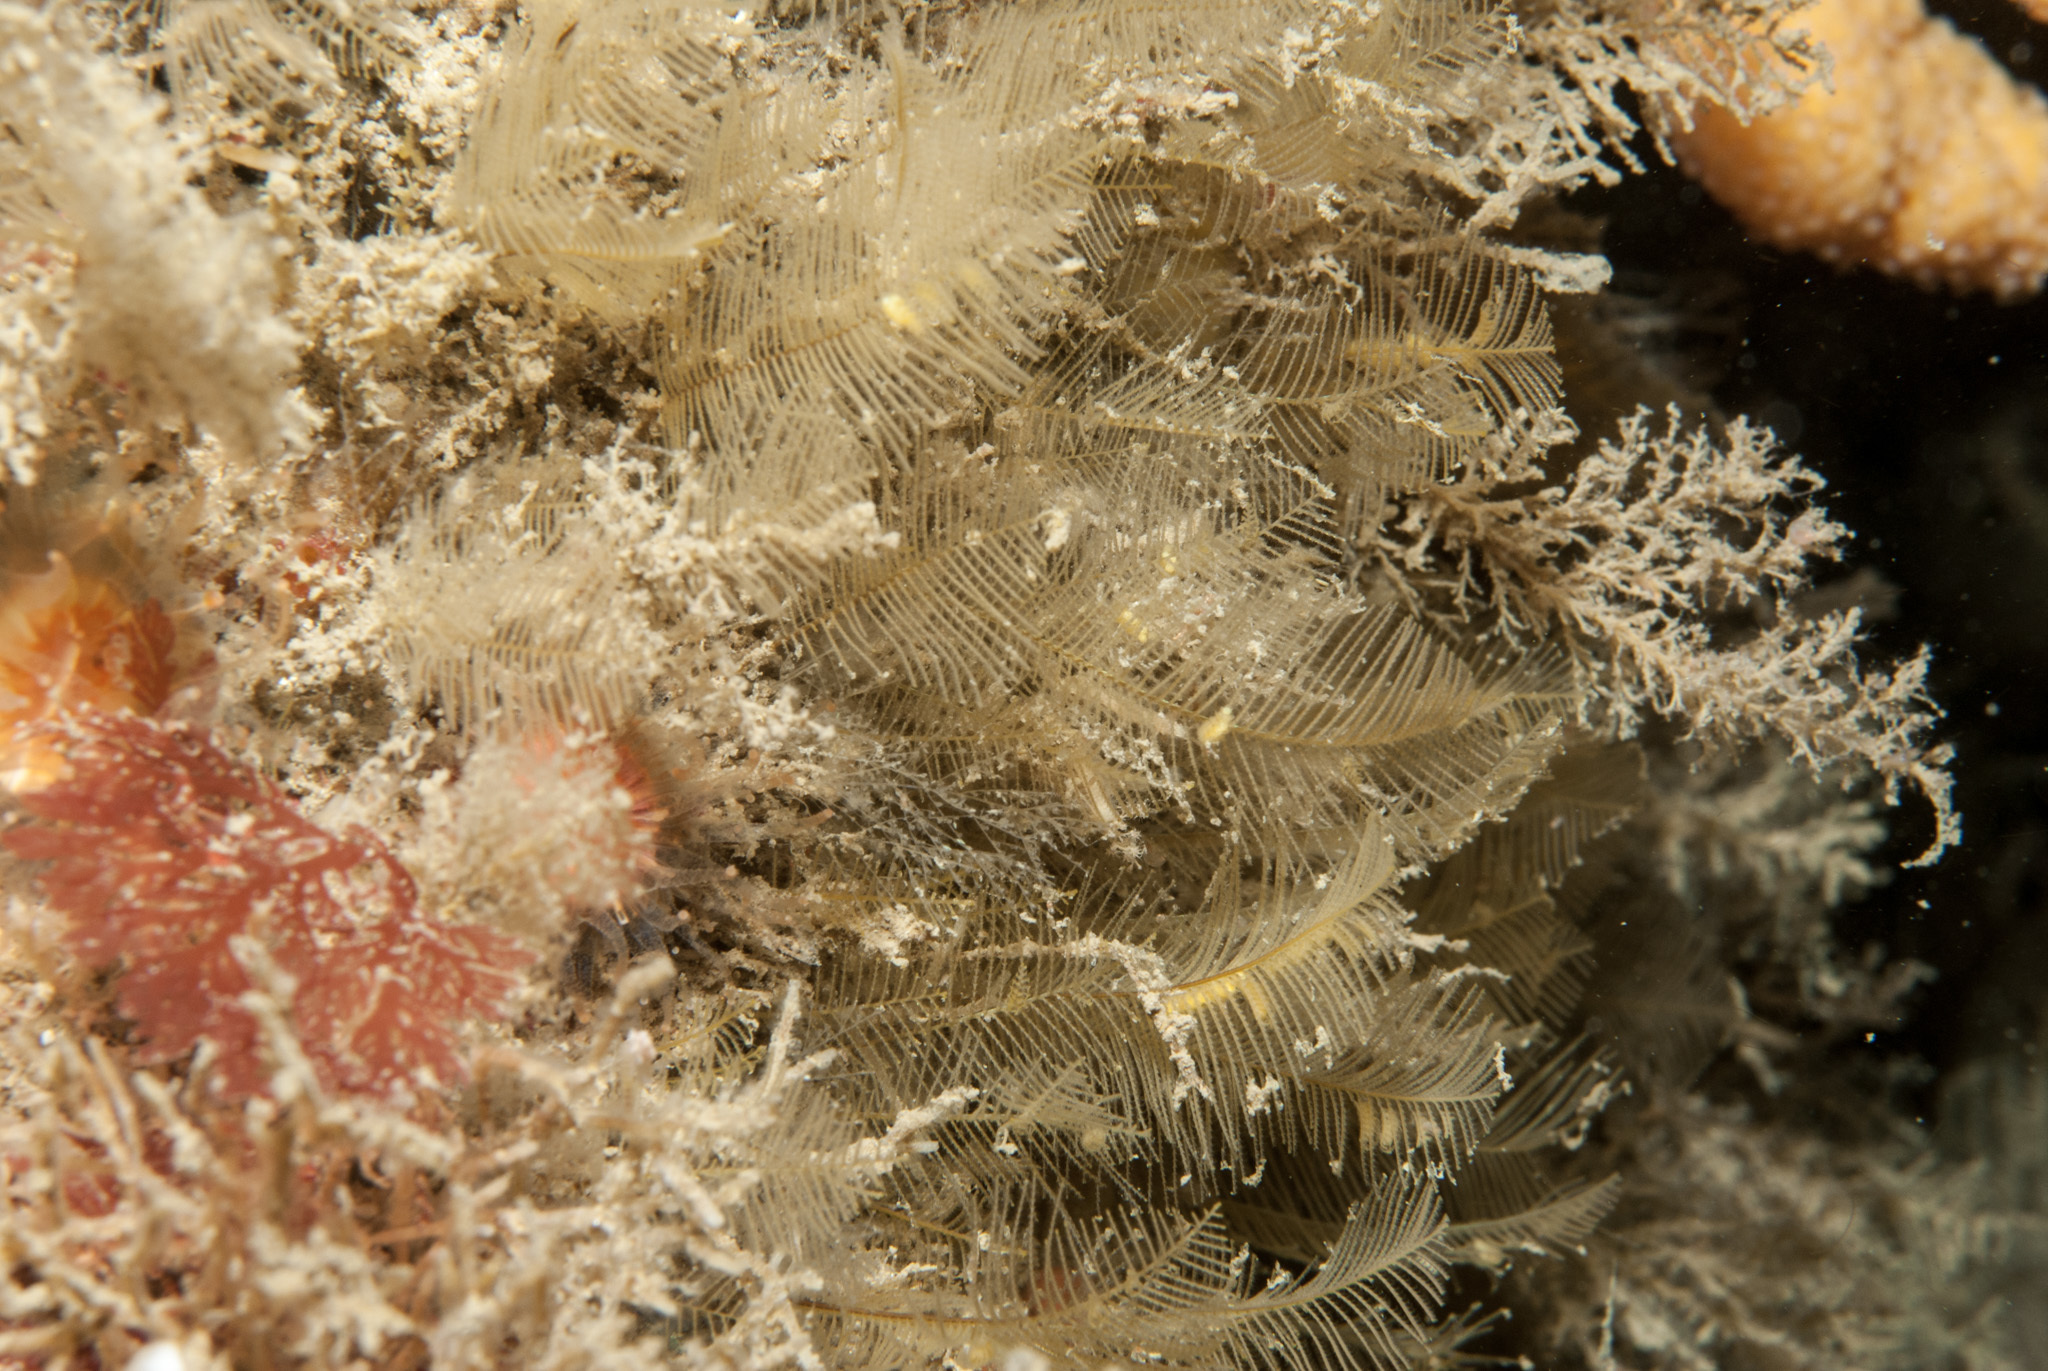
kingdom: Animalia
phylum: Cnidaria
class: Hydrozoa
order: Leptothecata
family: Aglaopheniidae
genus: Aglaophenia
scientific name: Aglaophenia tubulifera
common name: Plume hydroid
